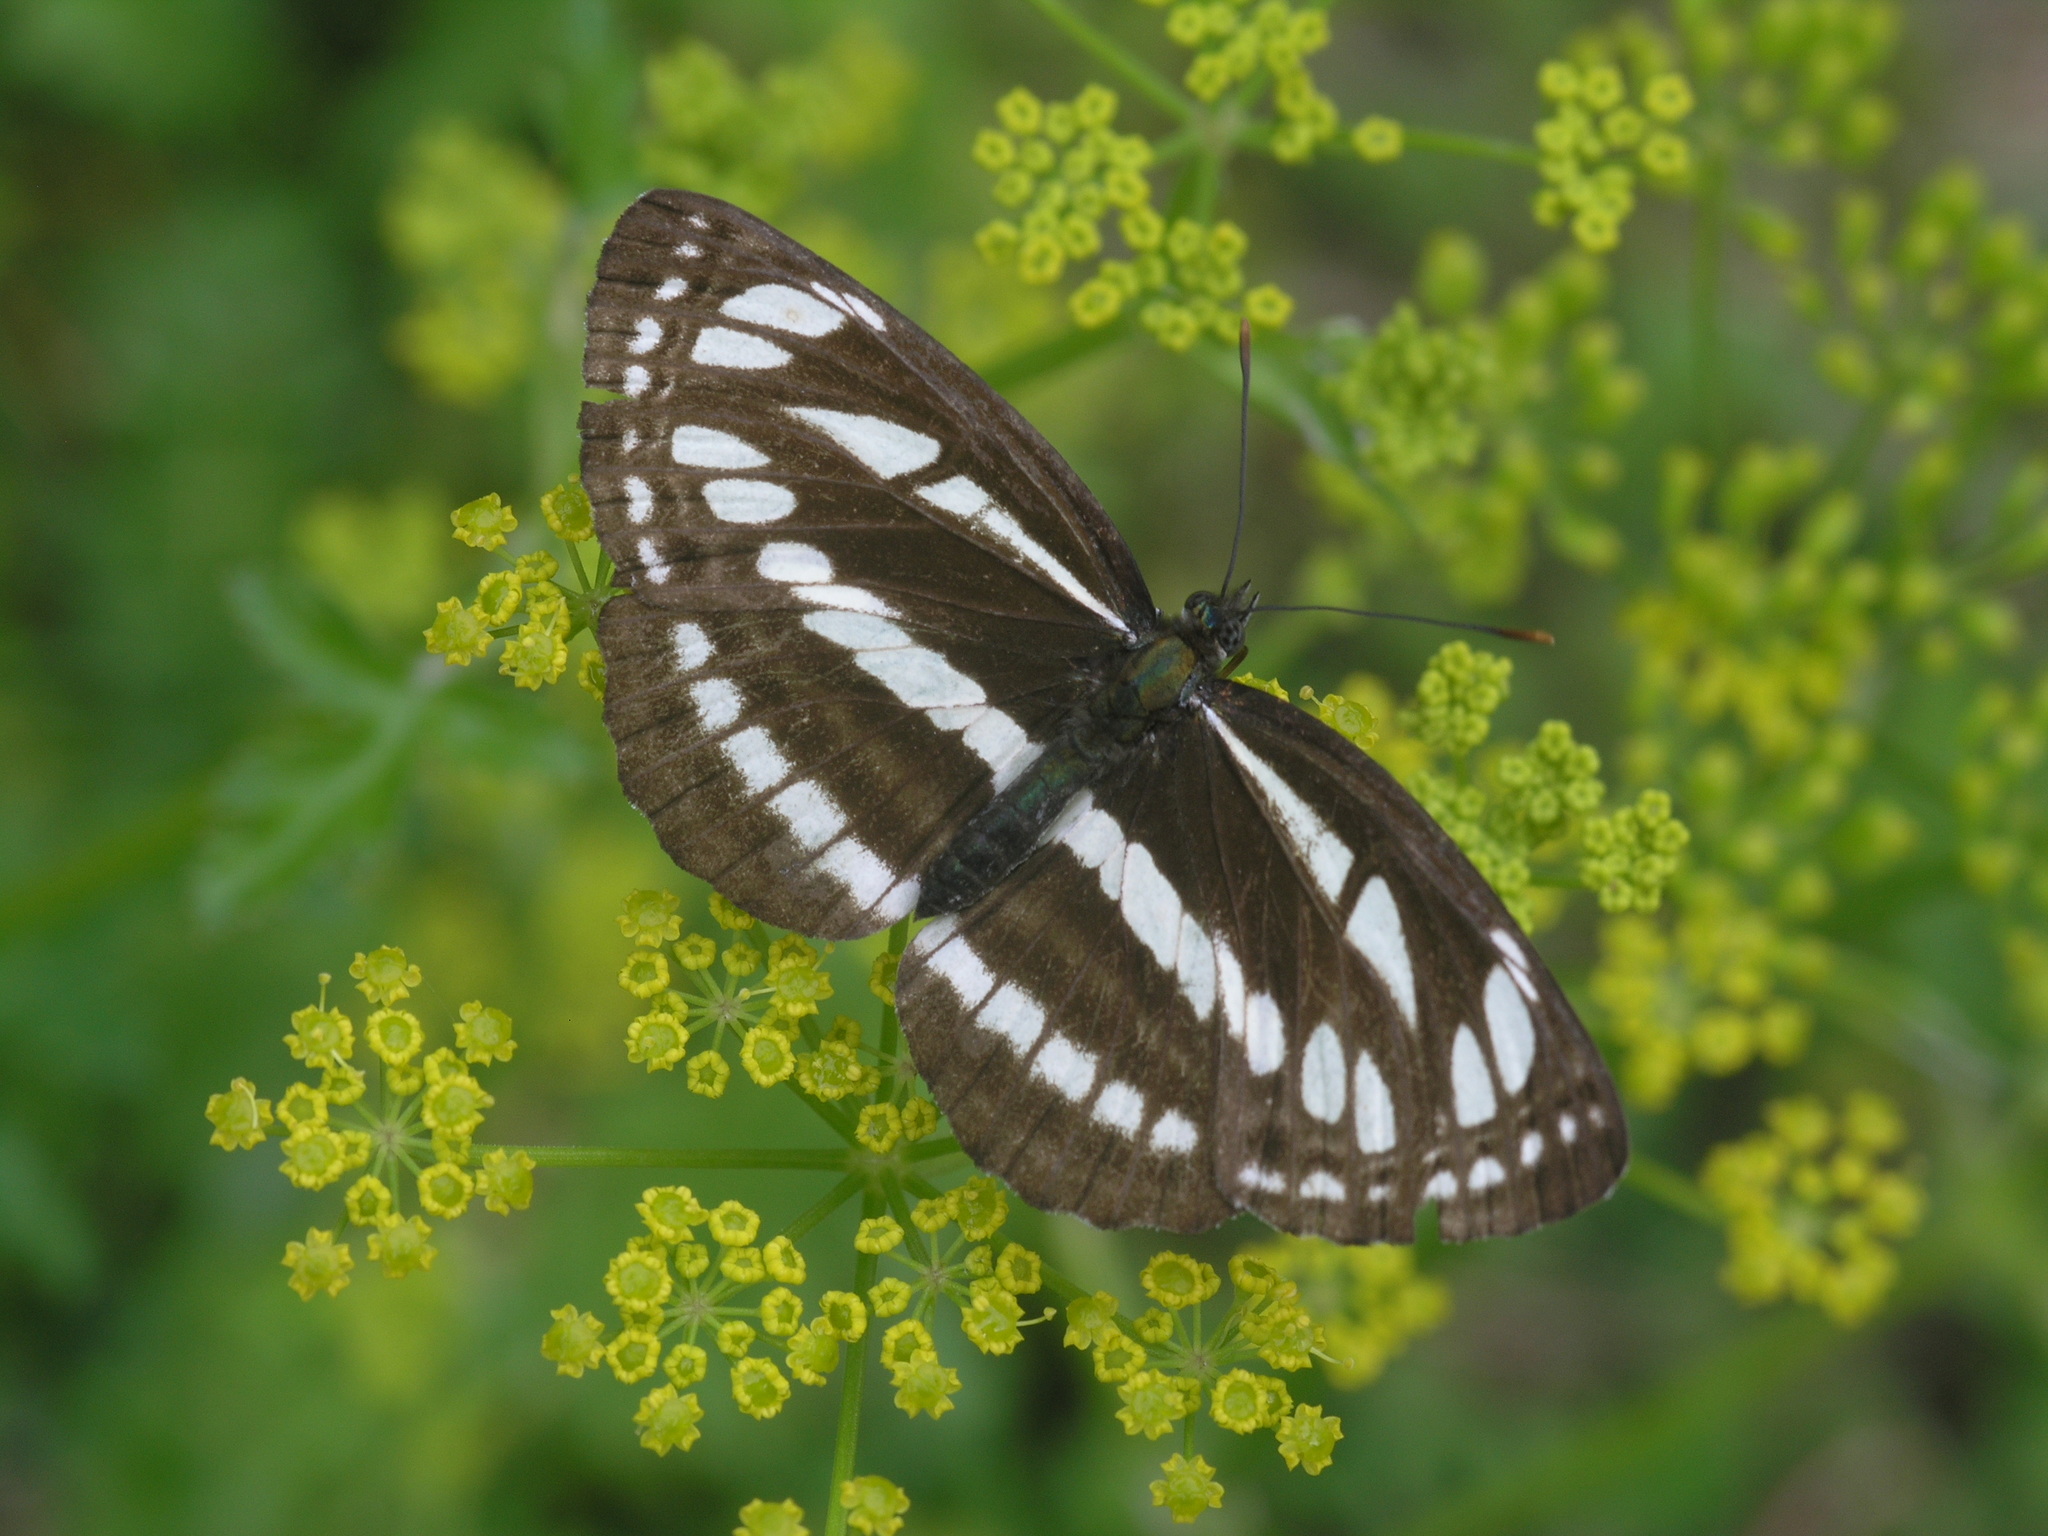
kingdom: Animalia
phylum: Arthropoda
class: Insecta
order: Lepidoptera
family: Nymphalidae
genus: Neptis
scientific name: Neptis sappho
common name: Common glider
